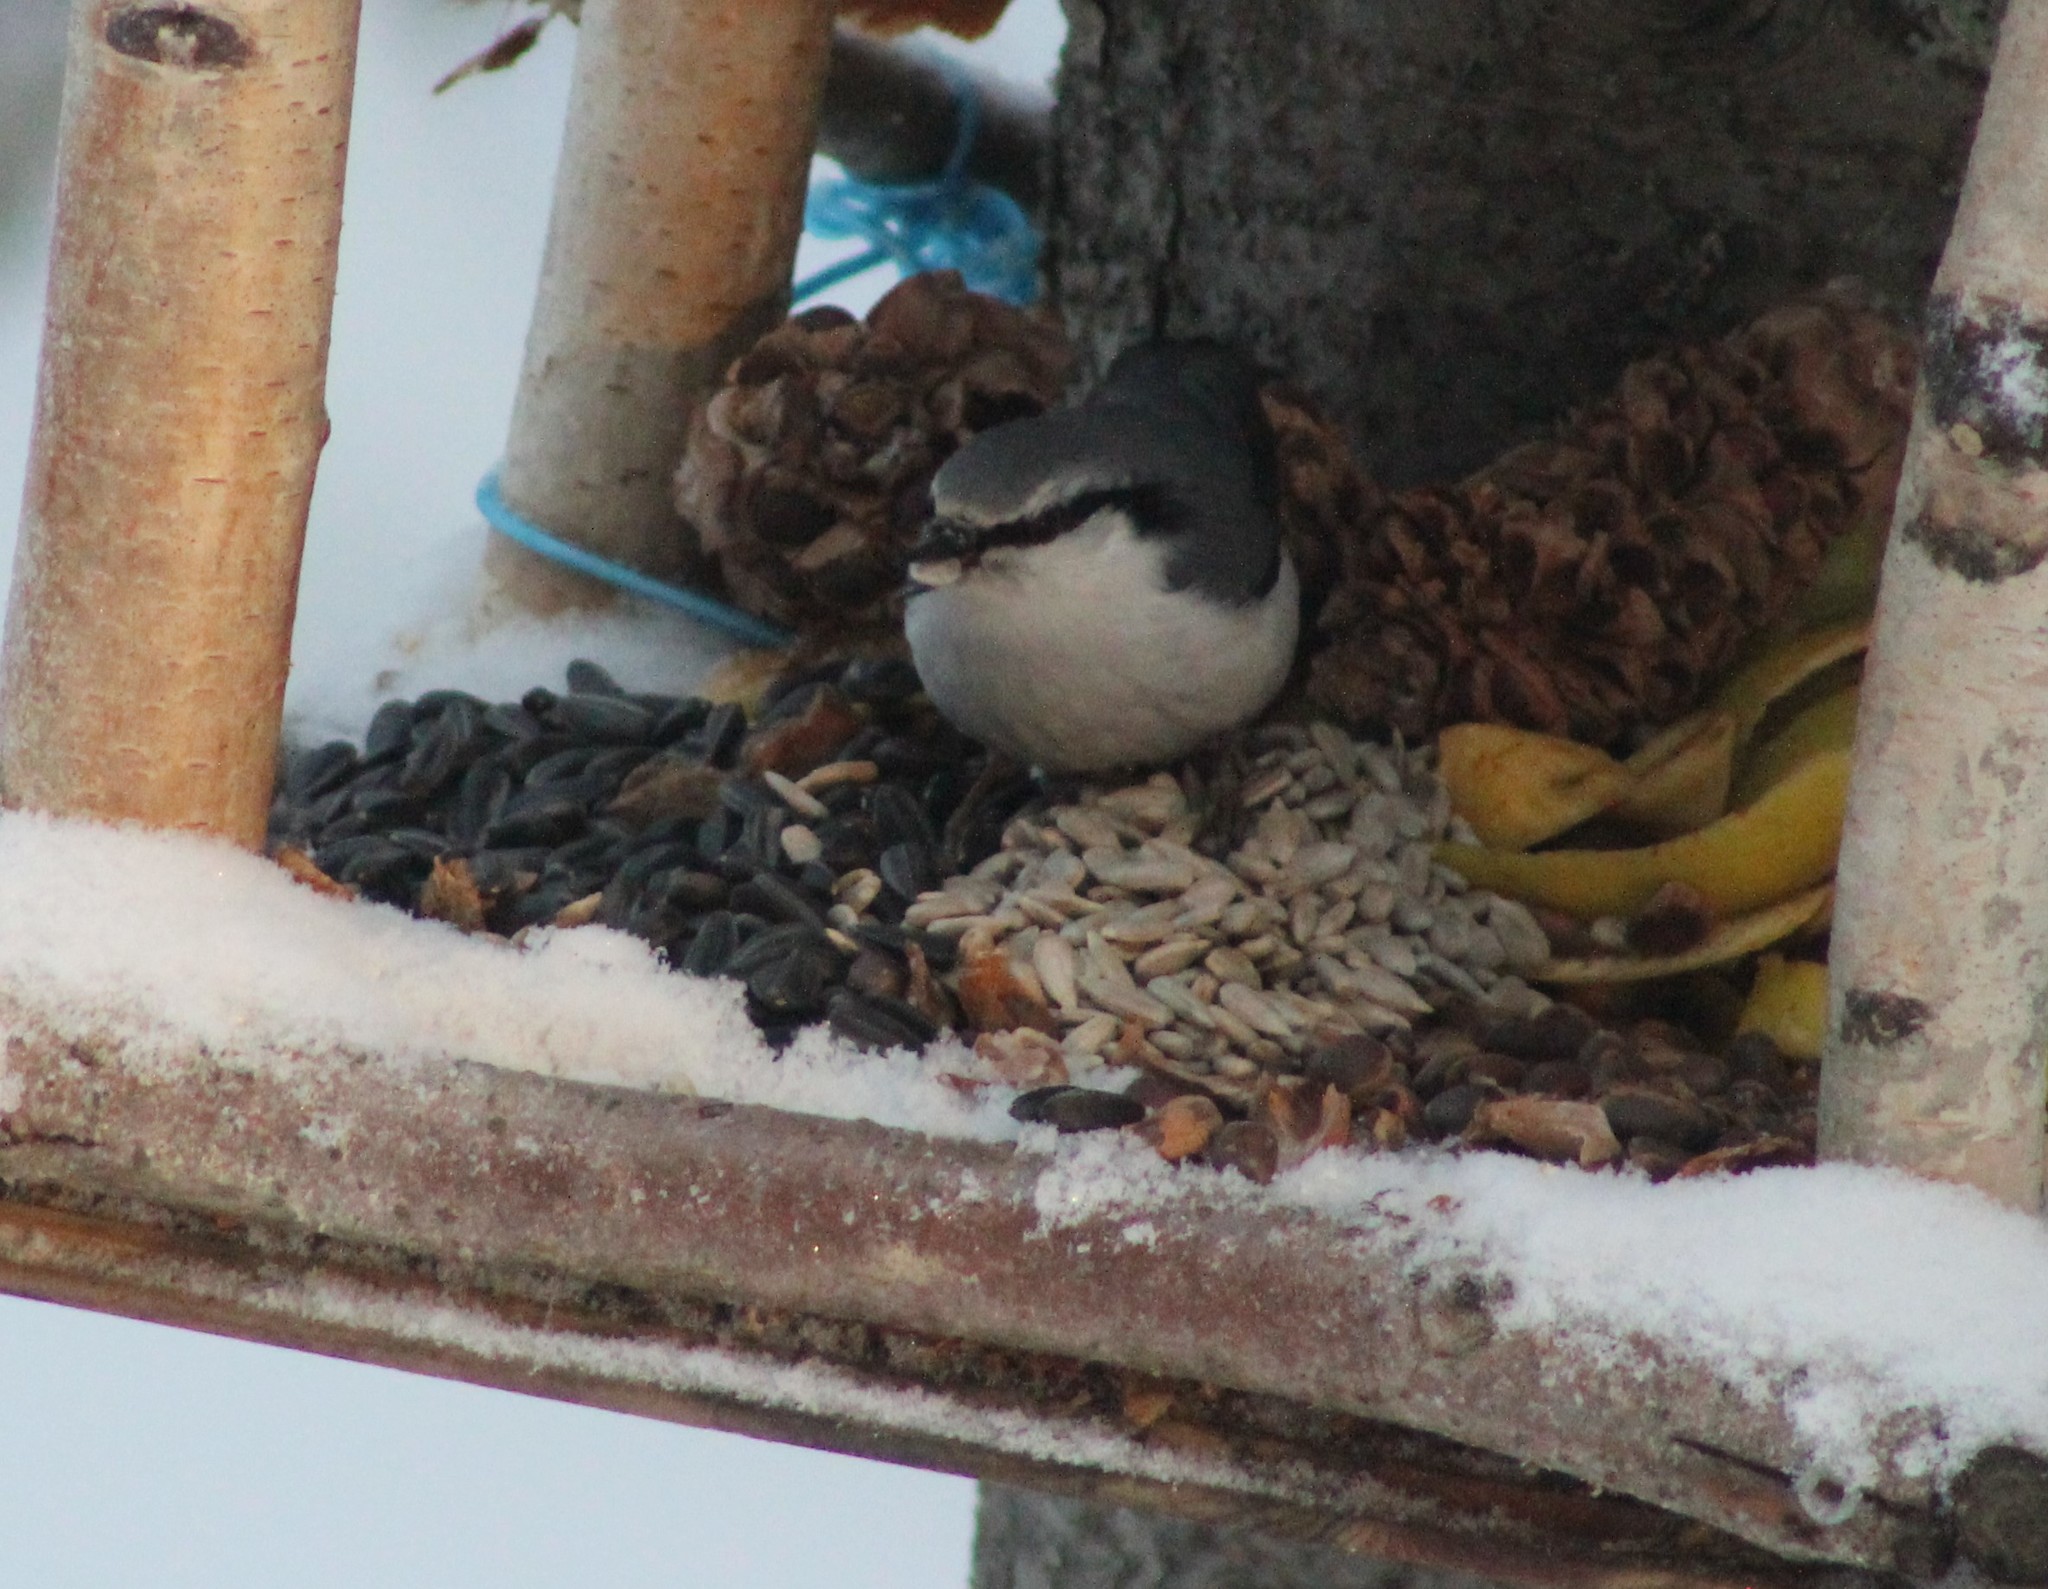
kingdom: Animalia
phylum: Chordata
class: Aves
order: Passeriformes
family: Sittidae
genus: Sitta
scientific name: Sitta europaea
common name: Eurasian nuthatch
